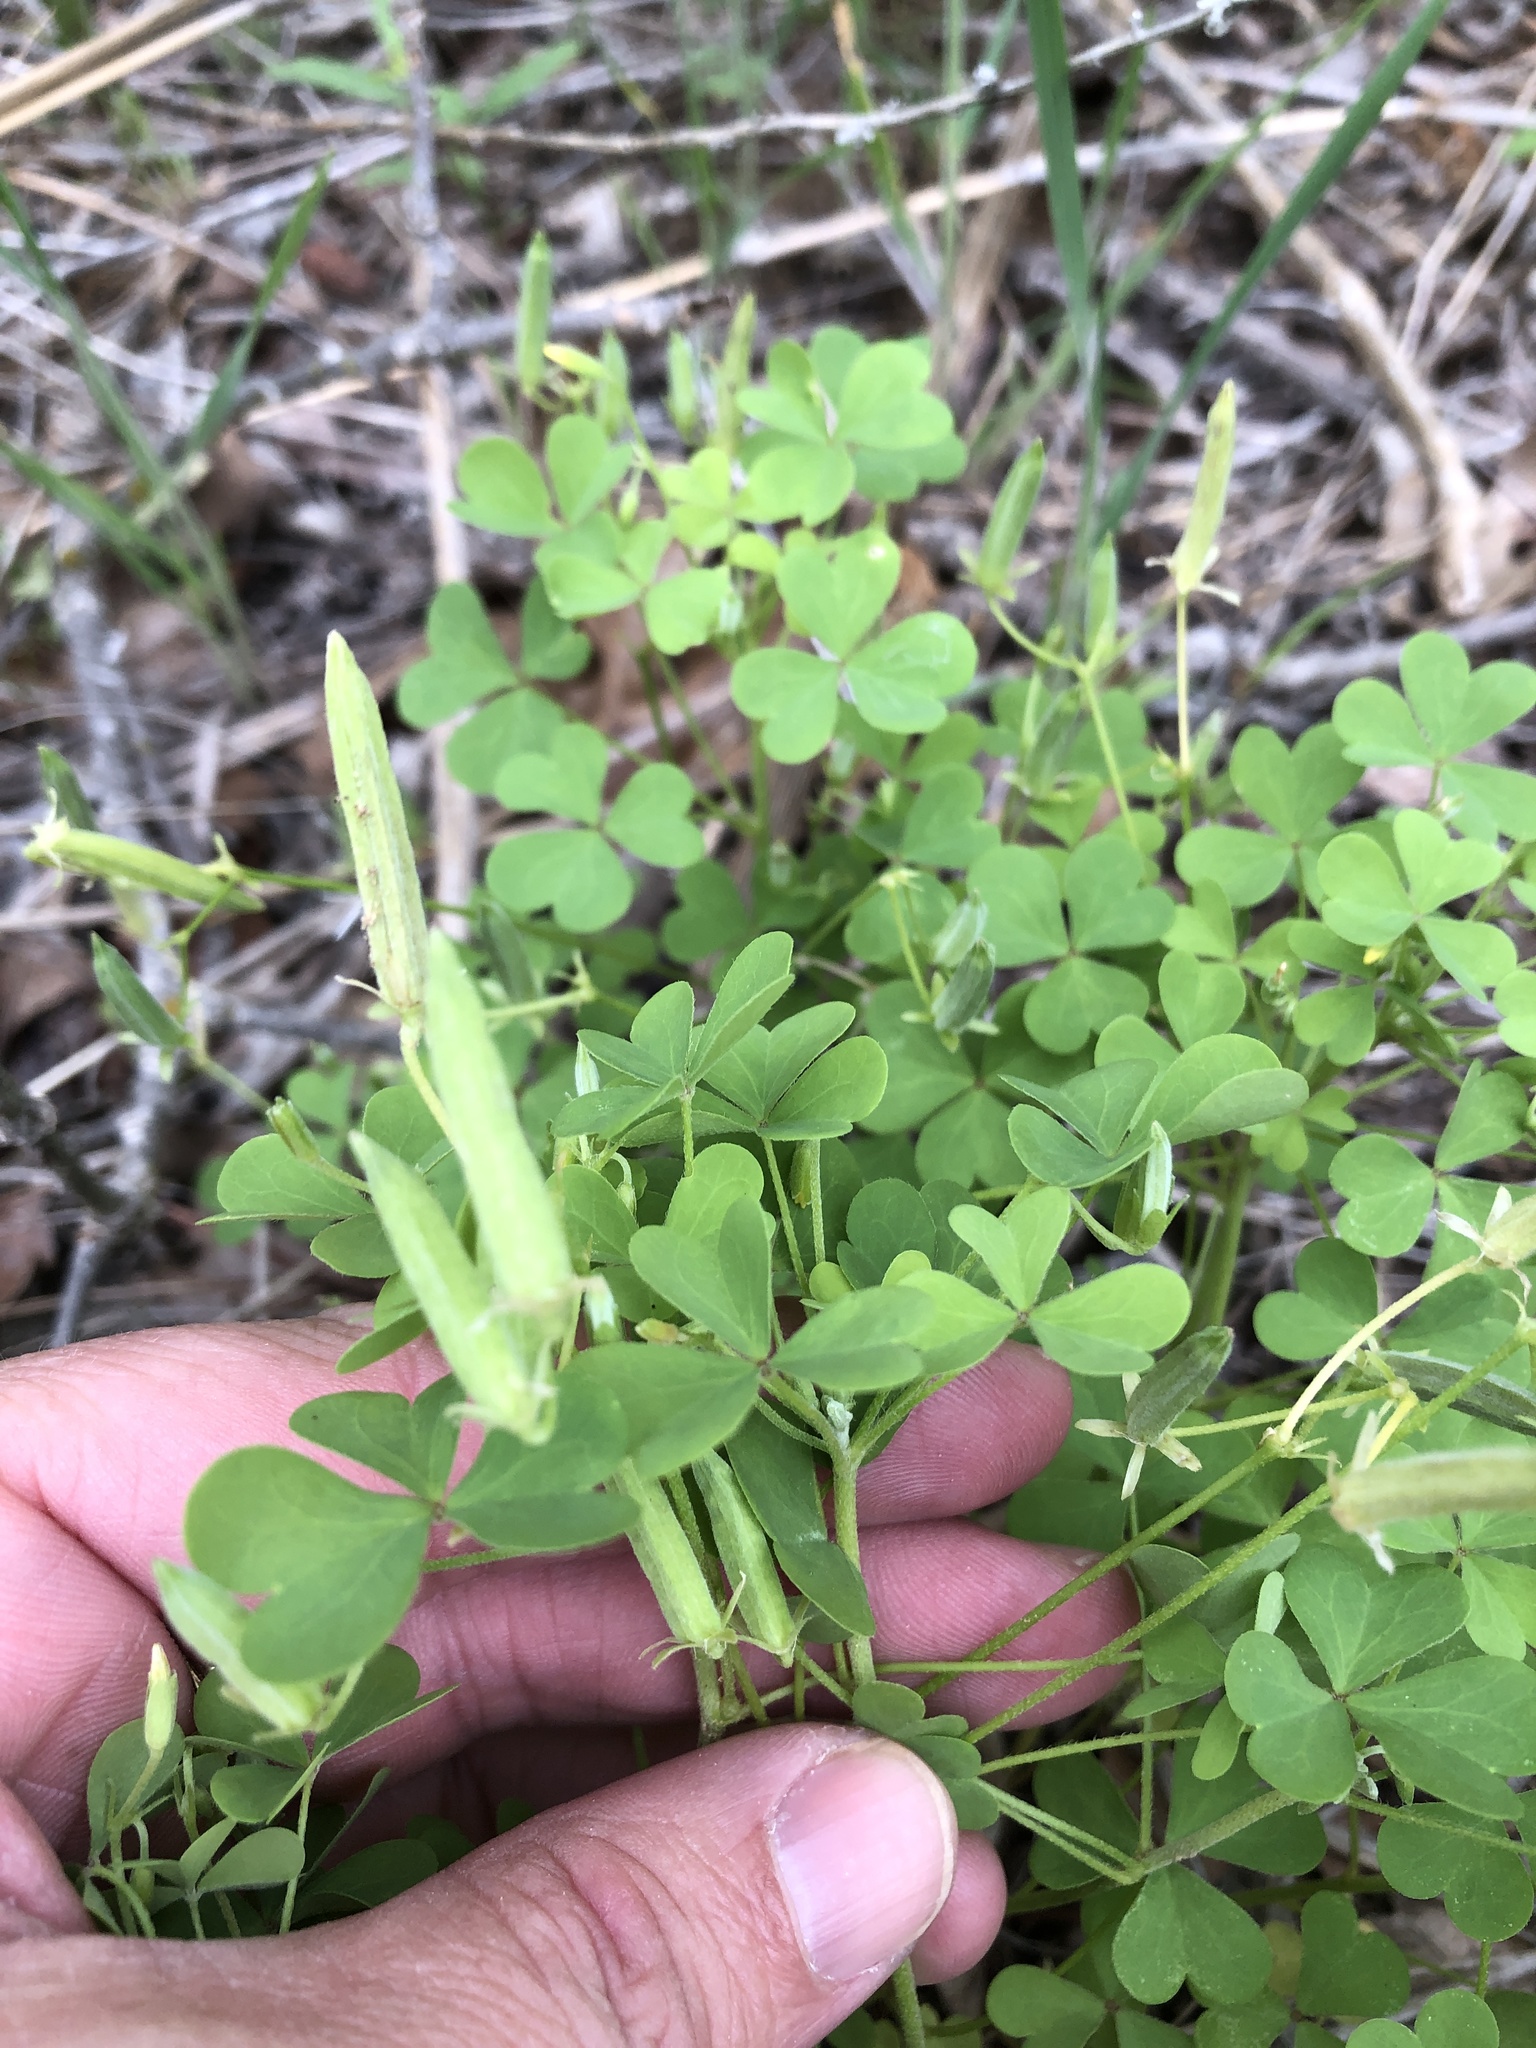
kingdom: Plantae
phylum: Tracheophyta
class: Magnoliopsida
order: Oxalidales
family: Oxalidaceae
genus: Oxalis
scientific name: Oxalis dillenii
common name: Sussex yellow-sorrel
